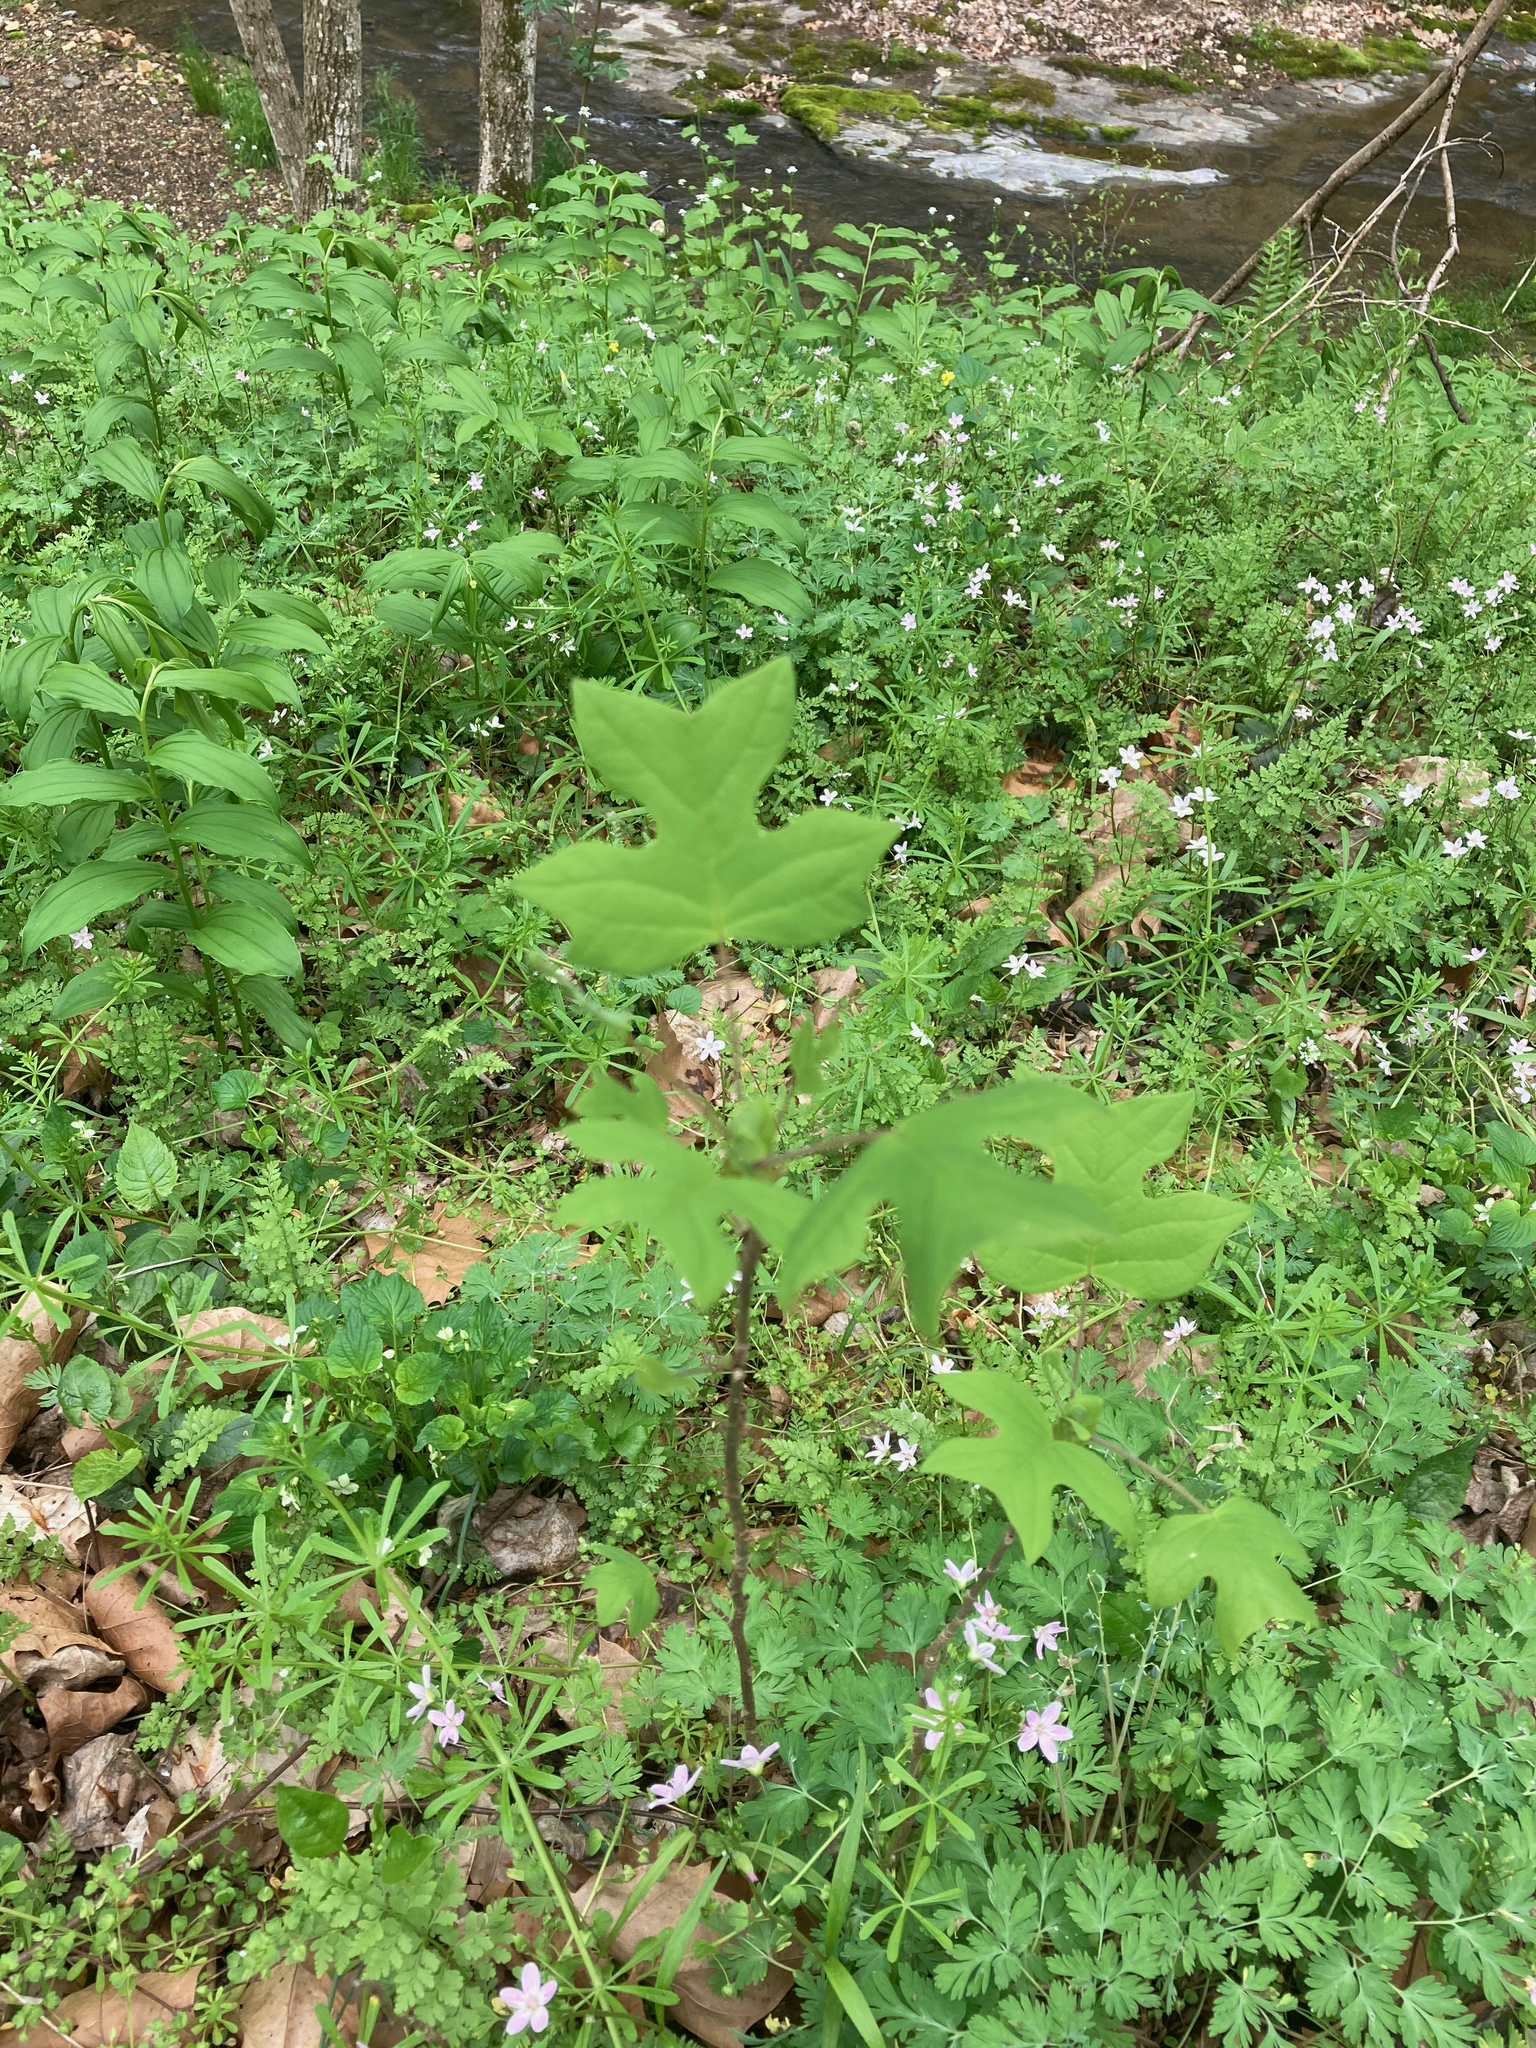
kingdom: Plantae
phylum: Tracheophyta
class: Magnoliopsida
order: Magnoliales
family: Magnoliaceae
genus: Liriodendron
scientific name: Liriodendron tulipifera
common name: Tulip tree
